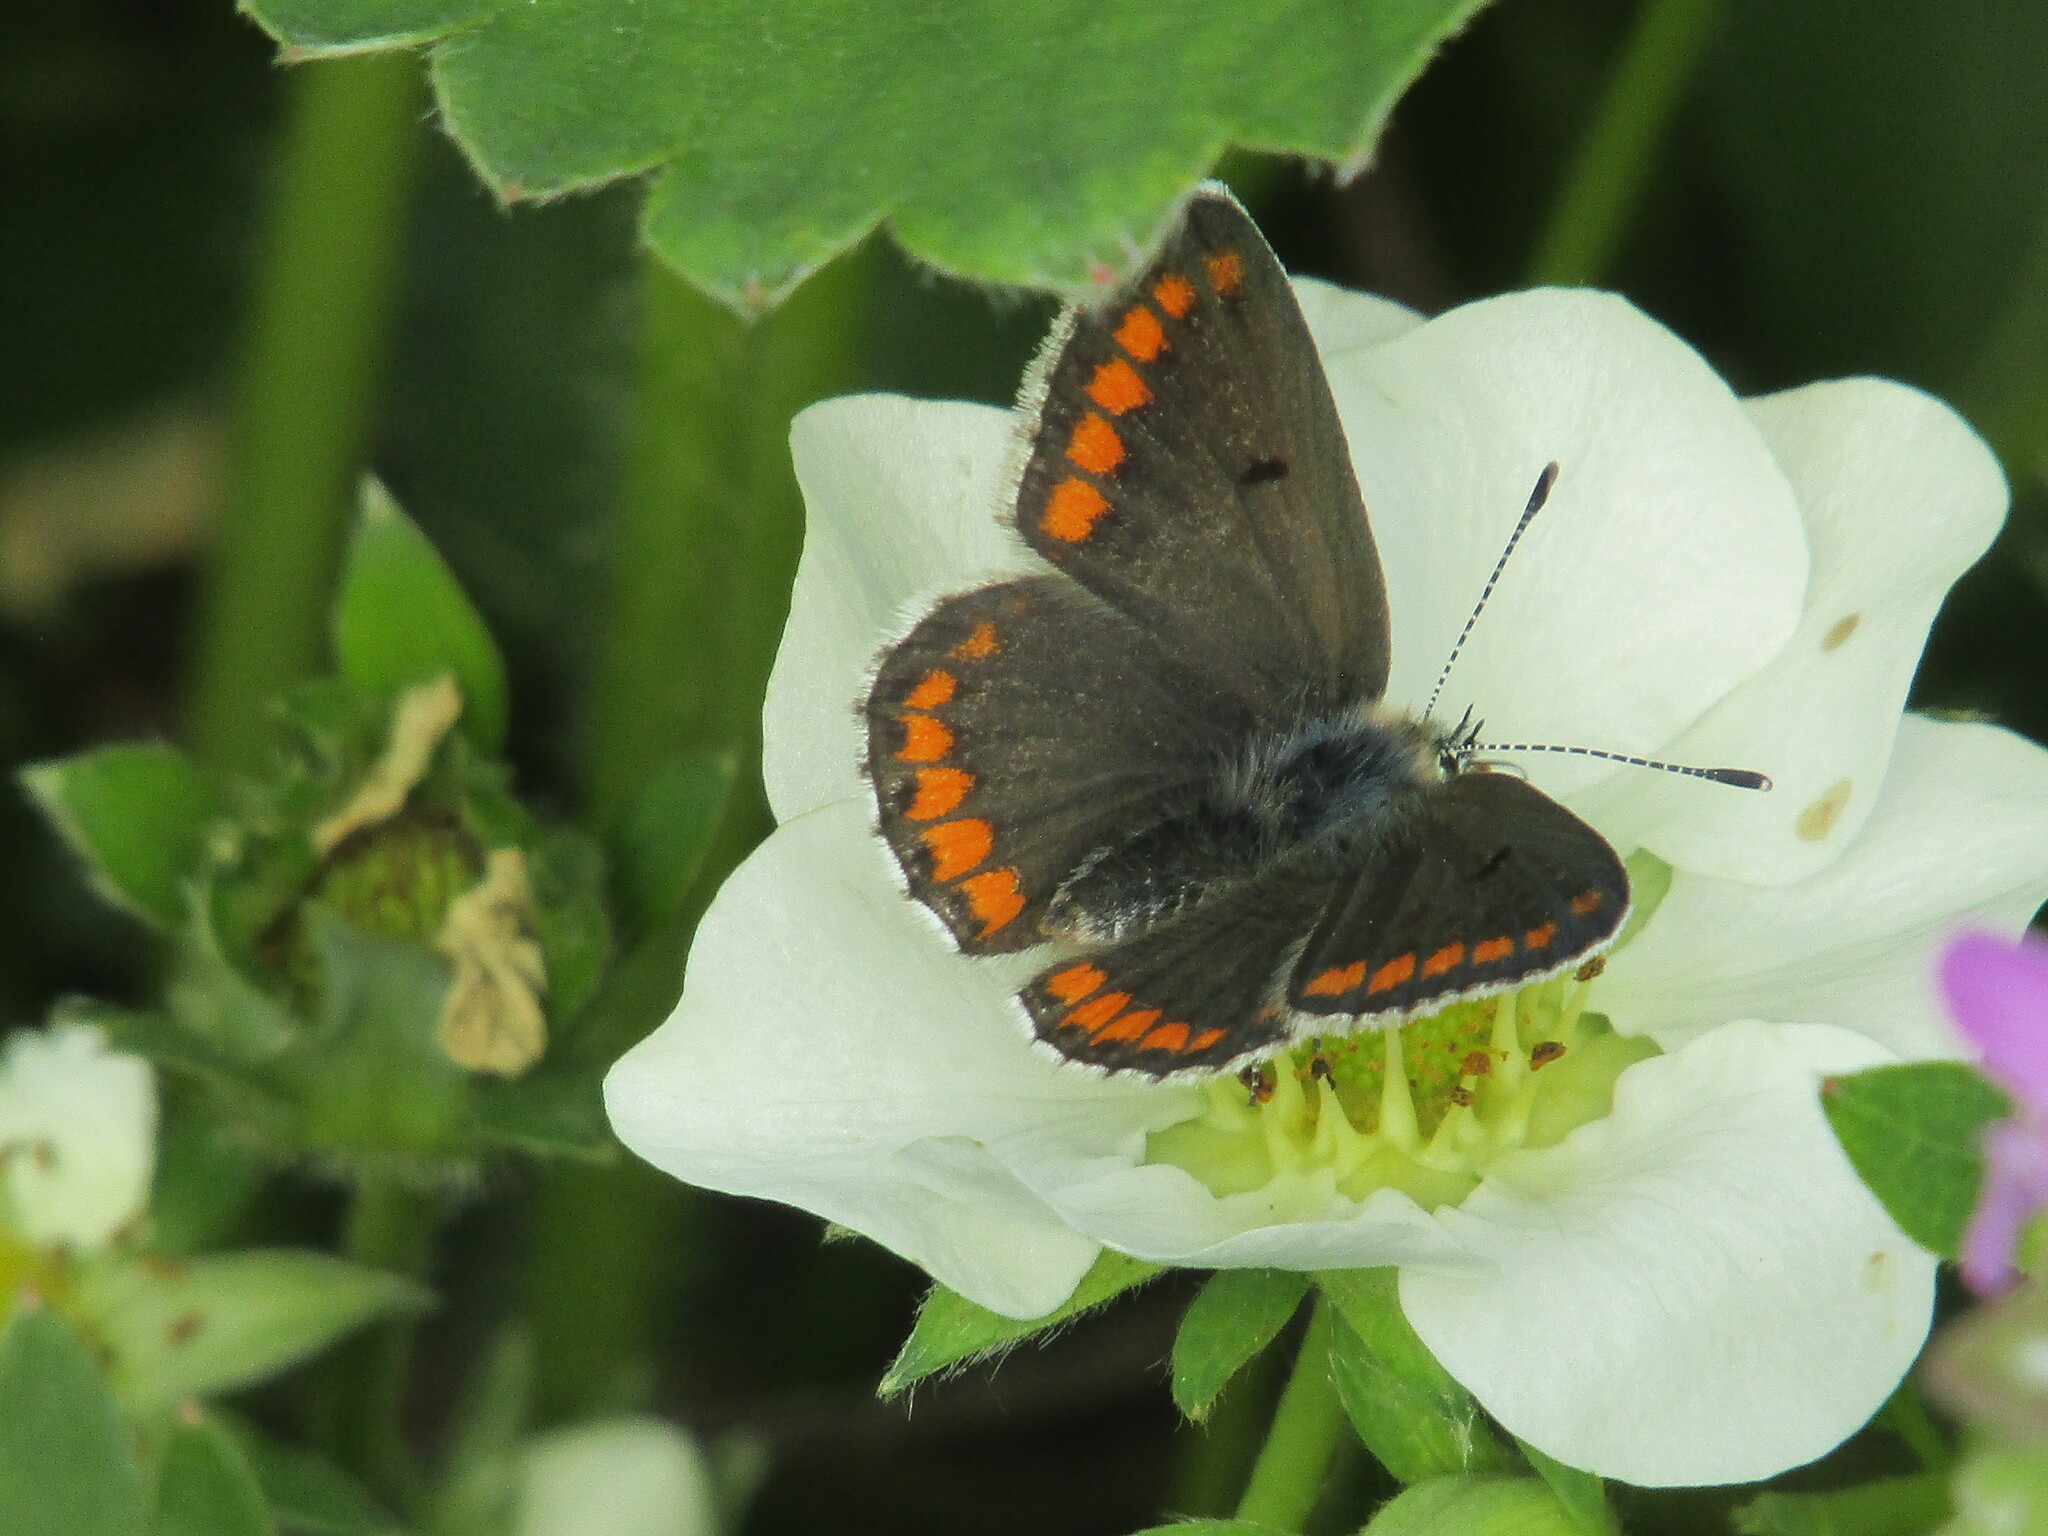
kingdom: Animalia
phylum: Arthropoda
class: Insecta
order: Lepidoptera
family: Lycaenidae
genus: Aricia
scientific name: Aricia agestis
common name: Brown argus
